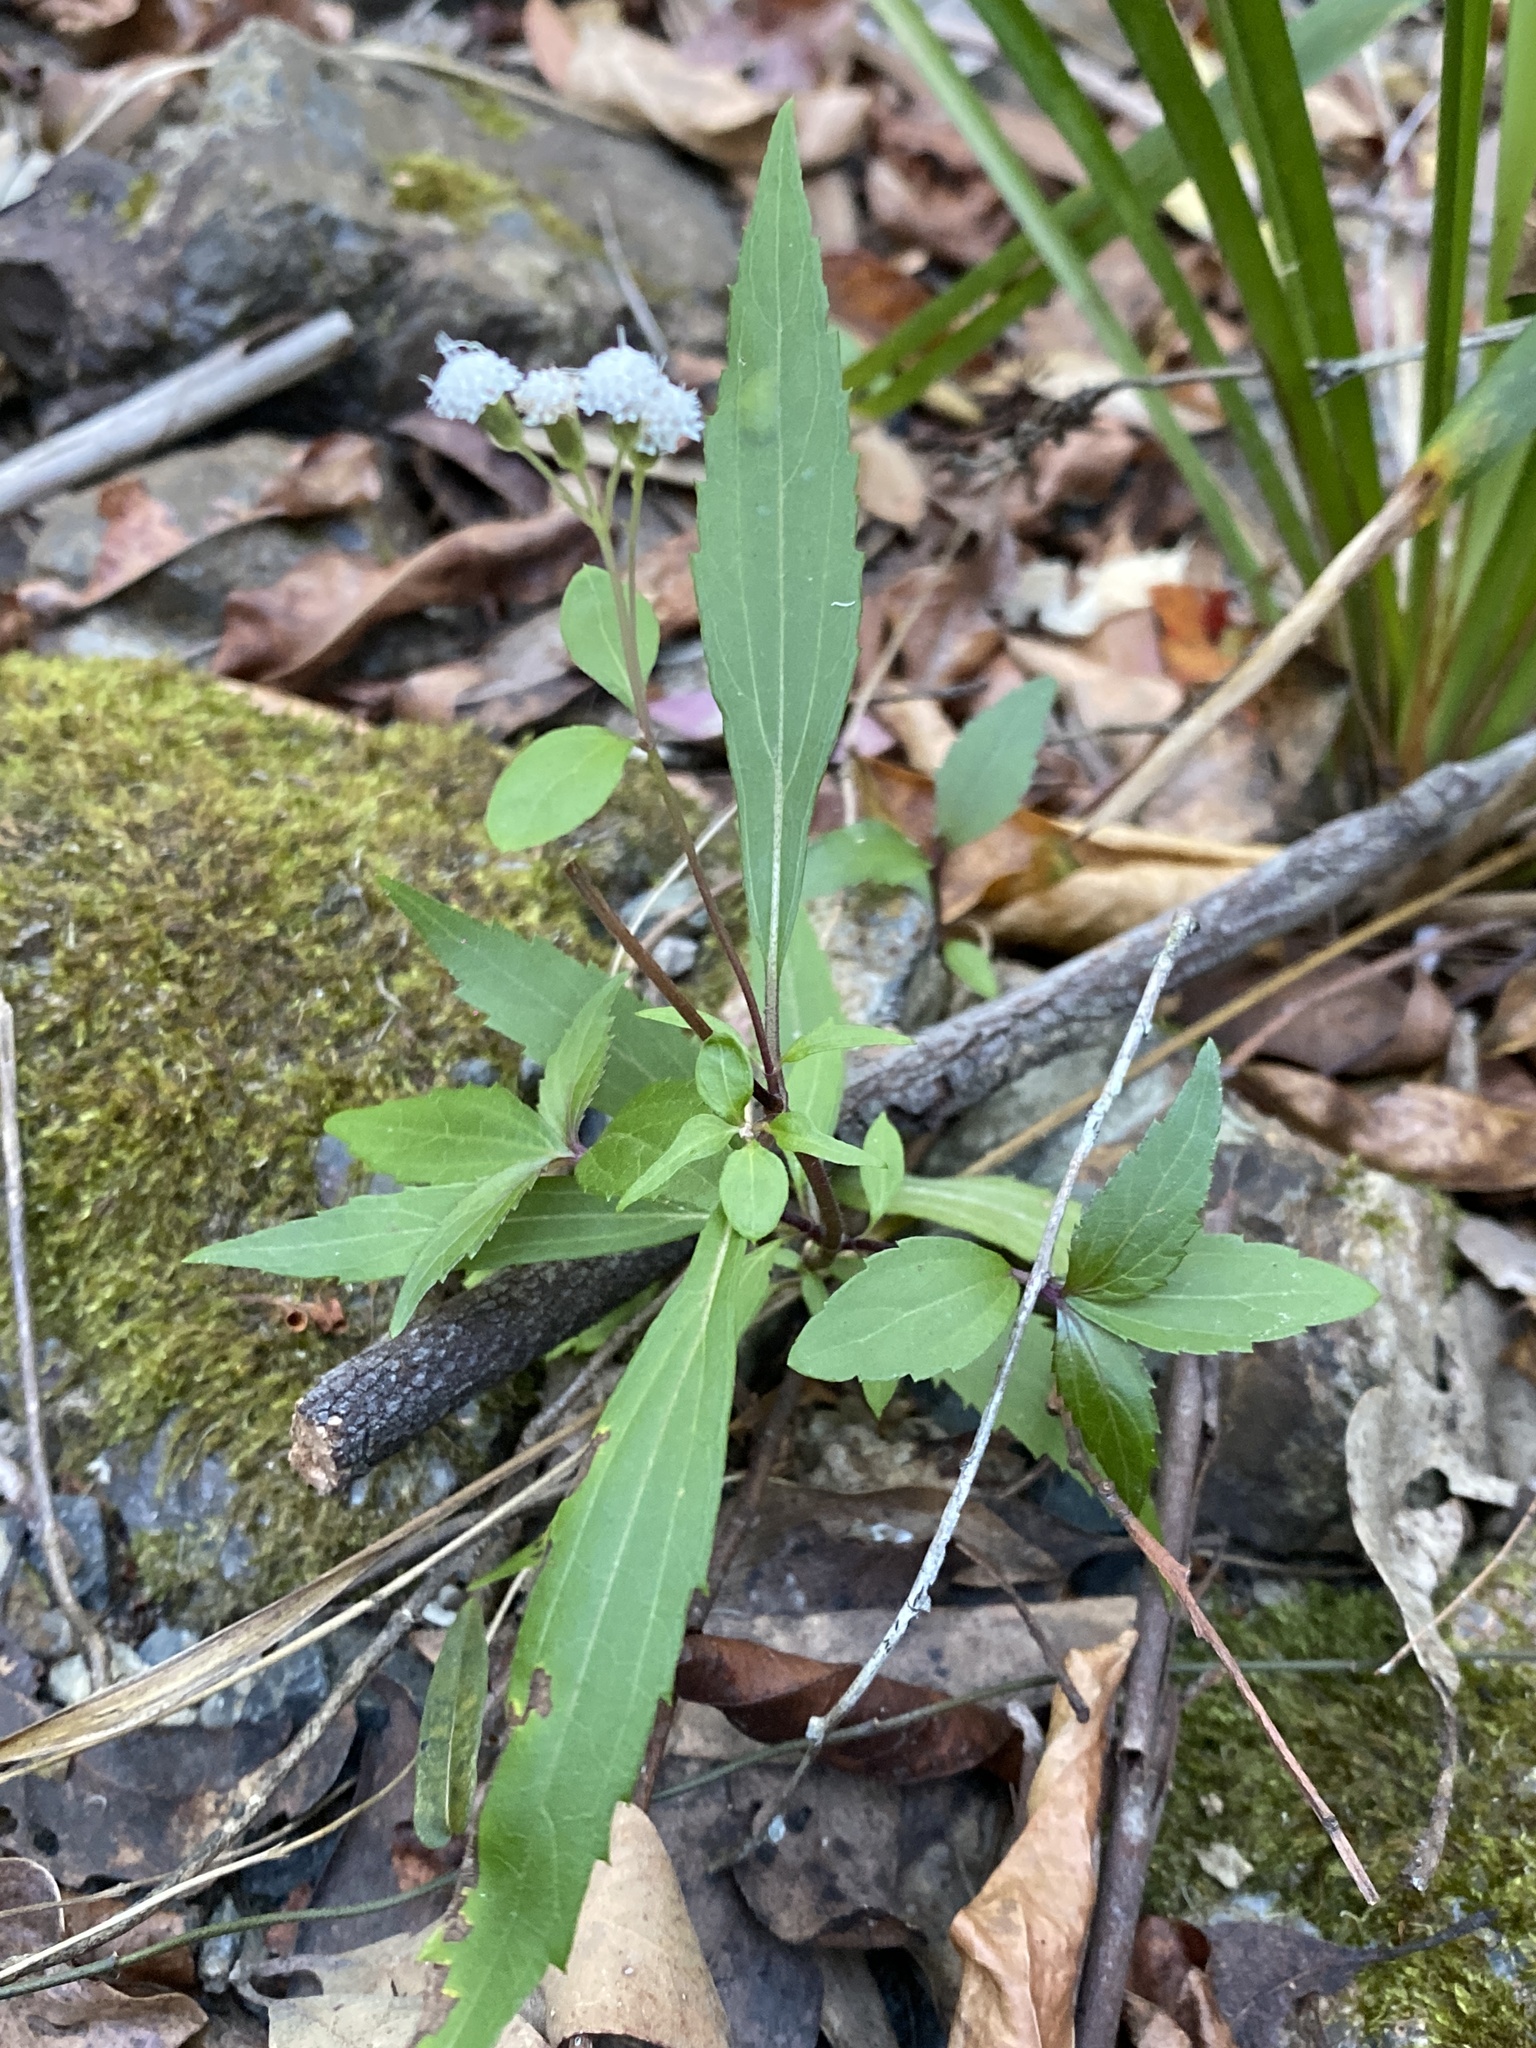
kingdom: Plantae
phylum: Tracheophyta
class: Magnoliopsida
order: Asterales
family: Asteraceae
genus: Ageratina
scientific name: Ageratina riparia
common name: Creeping croftonweed
